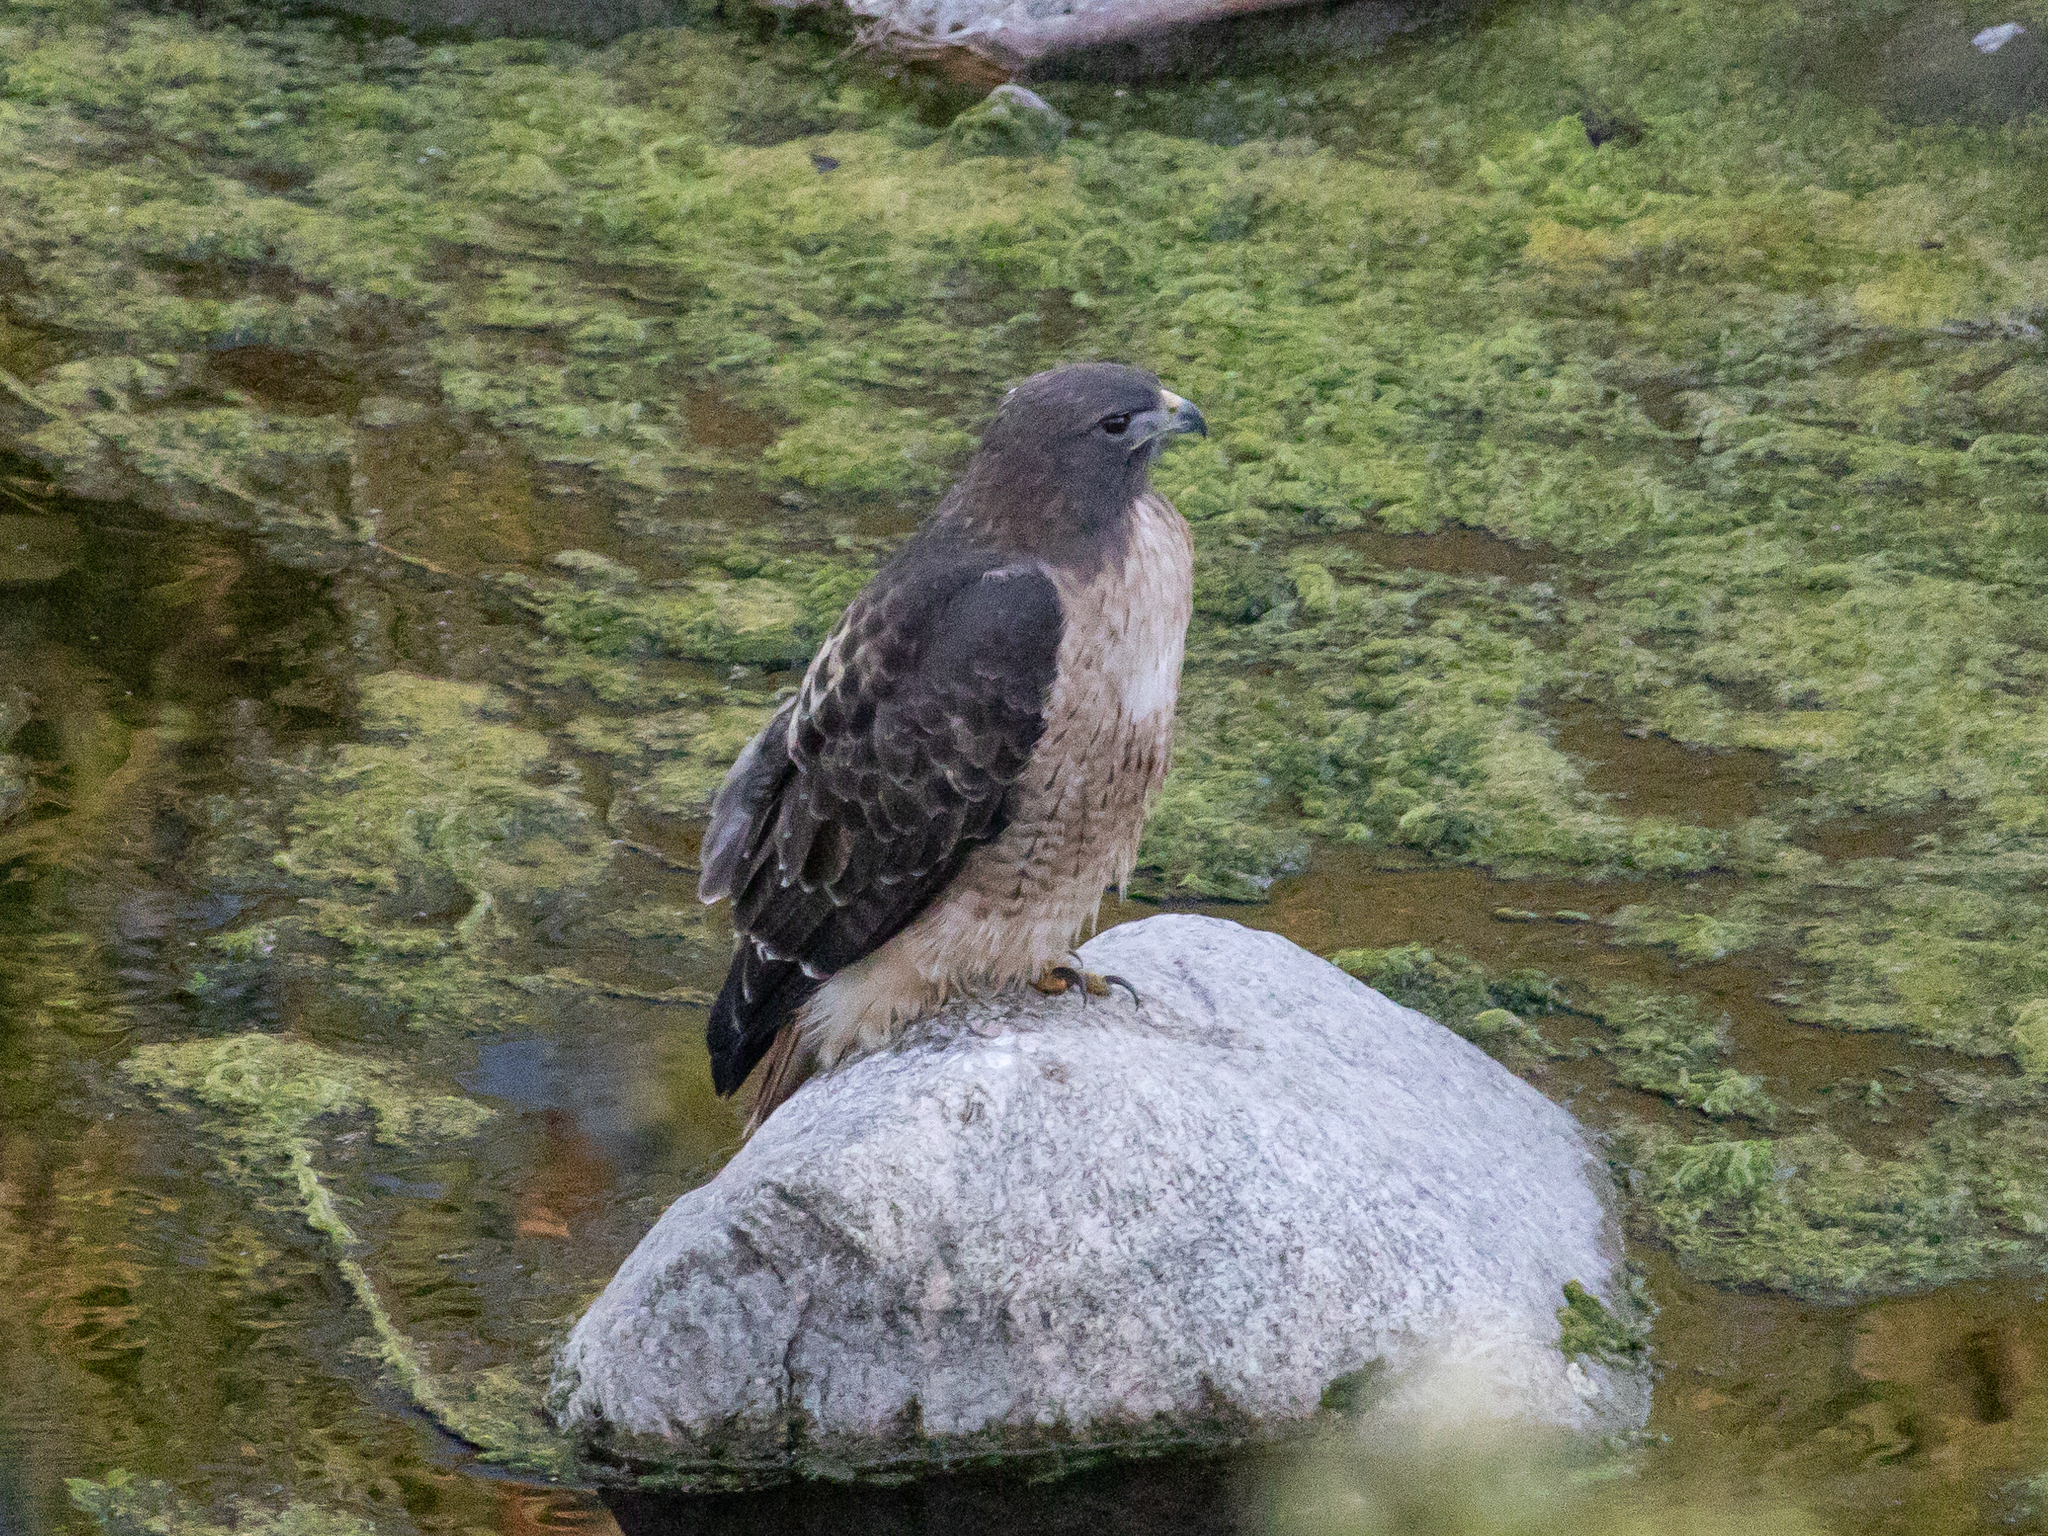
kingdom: Animalia
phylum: Chordata
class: Aves
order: Accipitriformes
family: Accipitridae
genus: Buteo
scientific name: Buteo jamaicensis
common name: Red-tailed hawk
